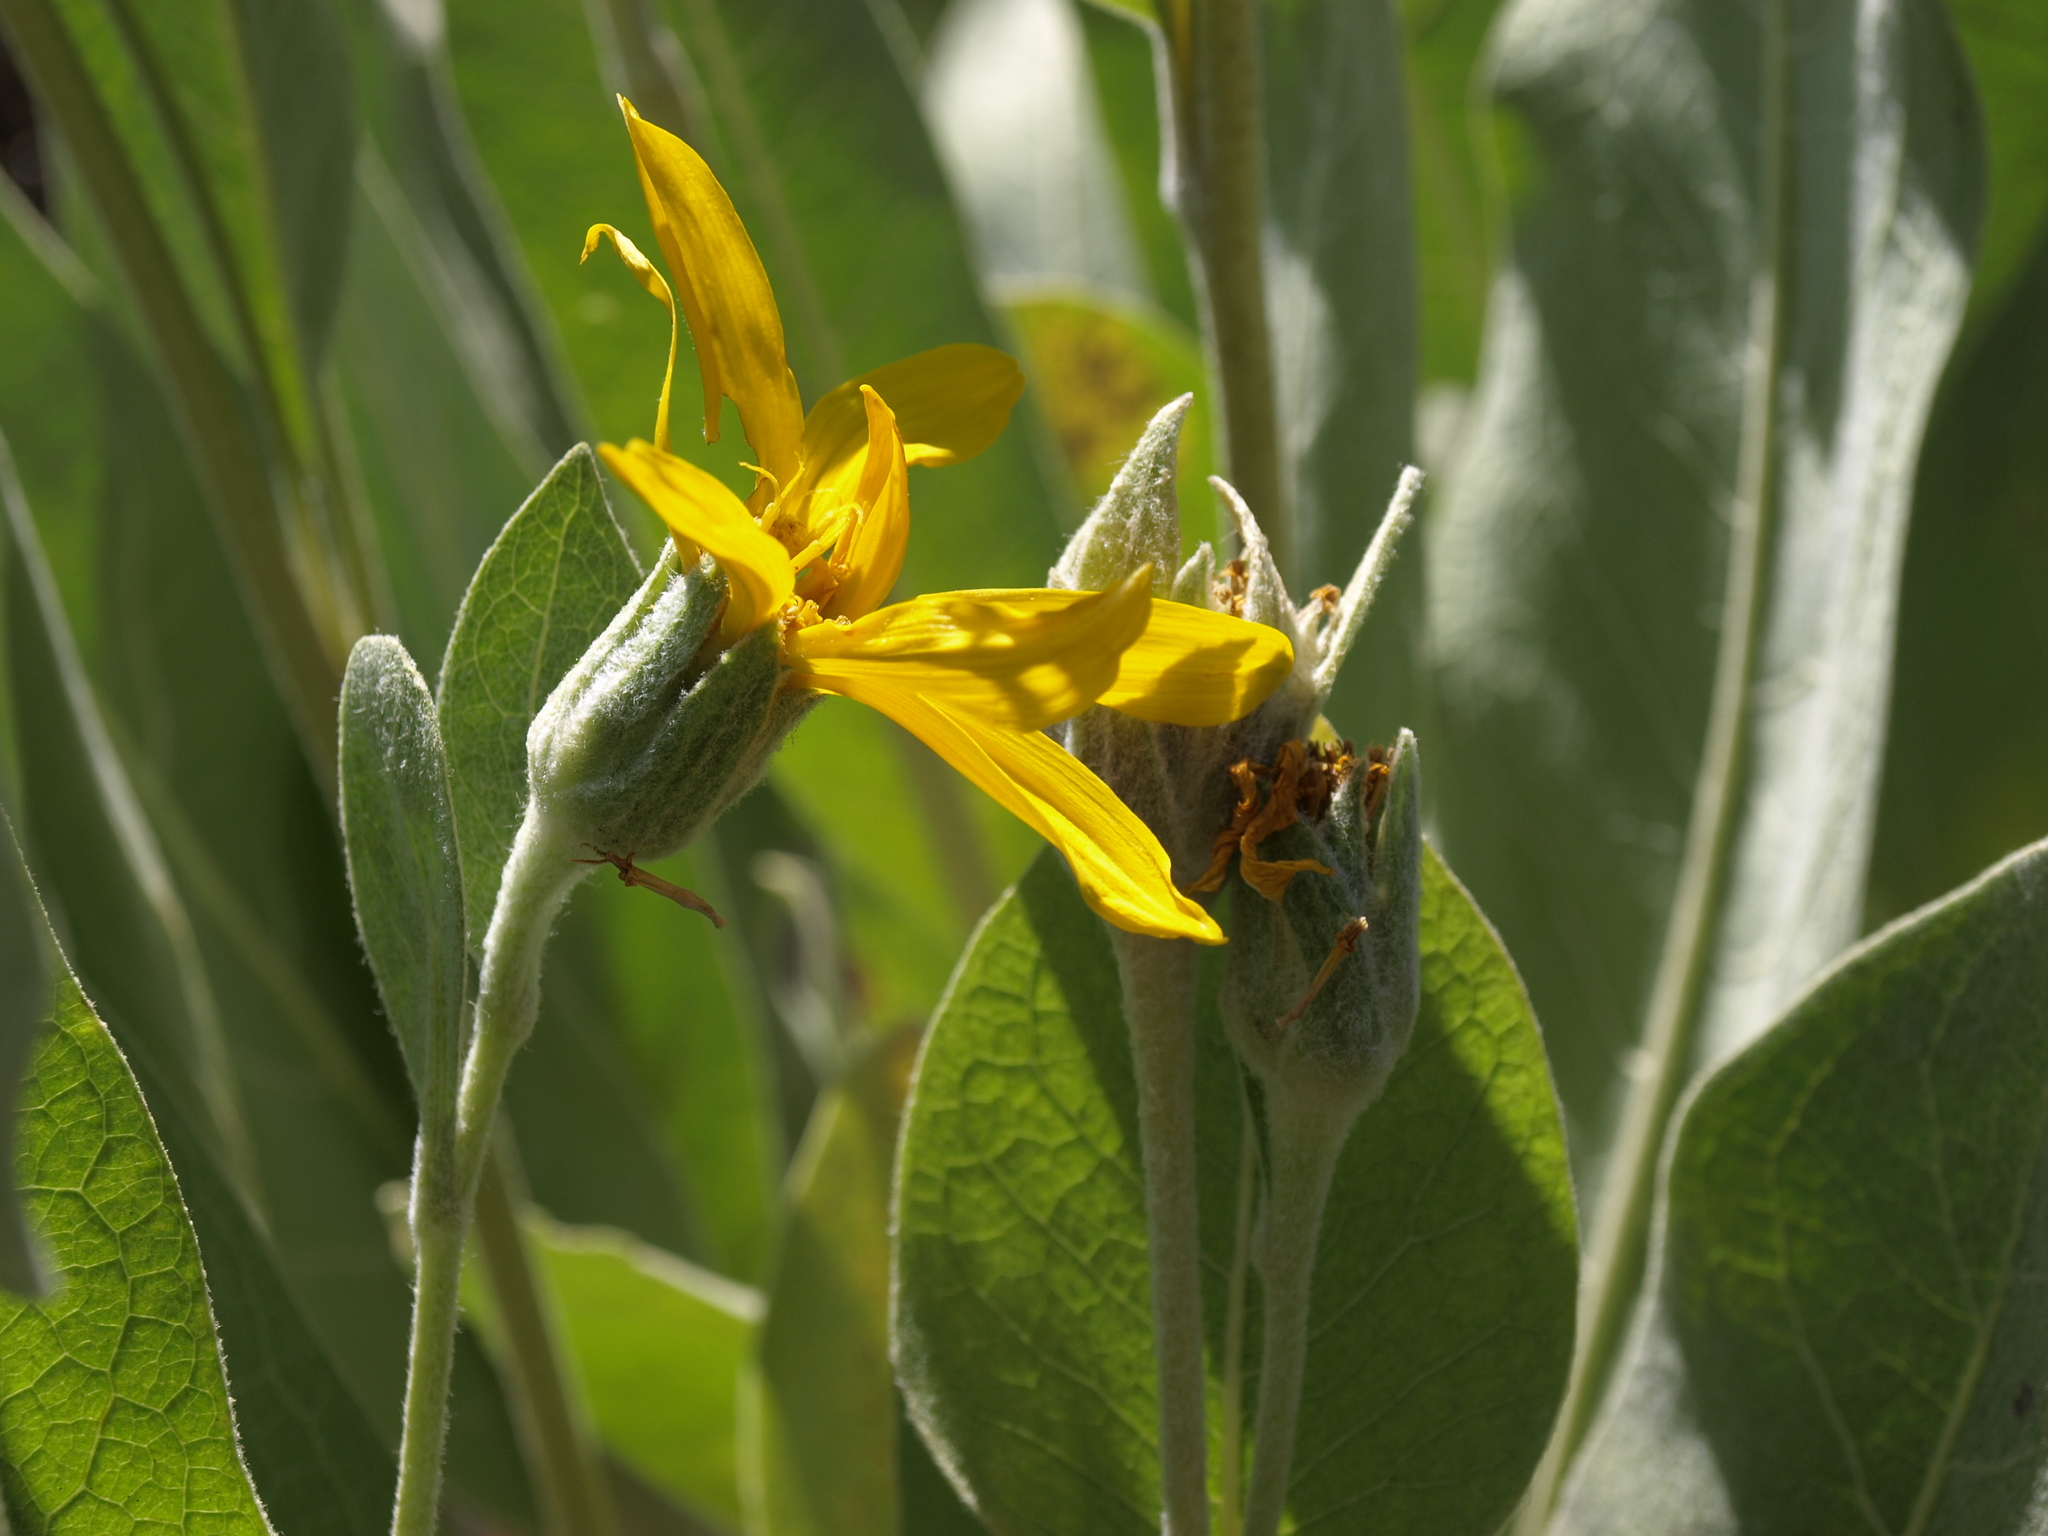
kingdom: Plantae
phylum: Tracheophyta
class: Magnoliopsida
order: Asterales
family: Asteraceae
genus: Wyethia
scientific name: Wyethia mollis
